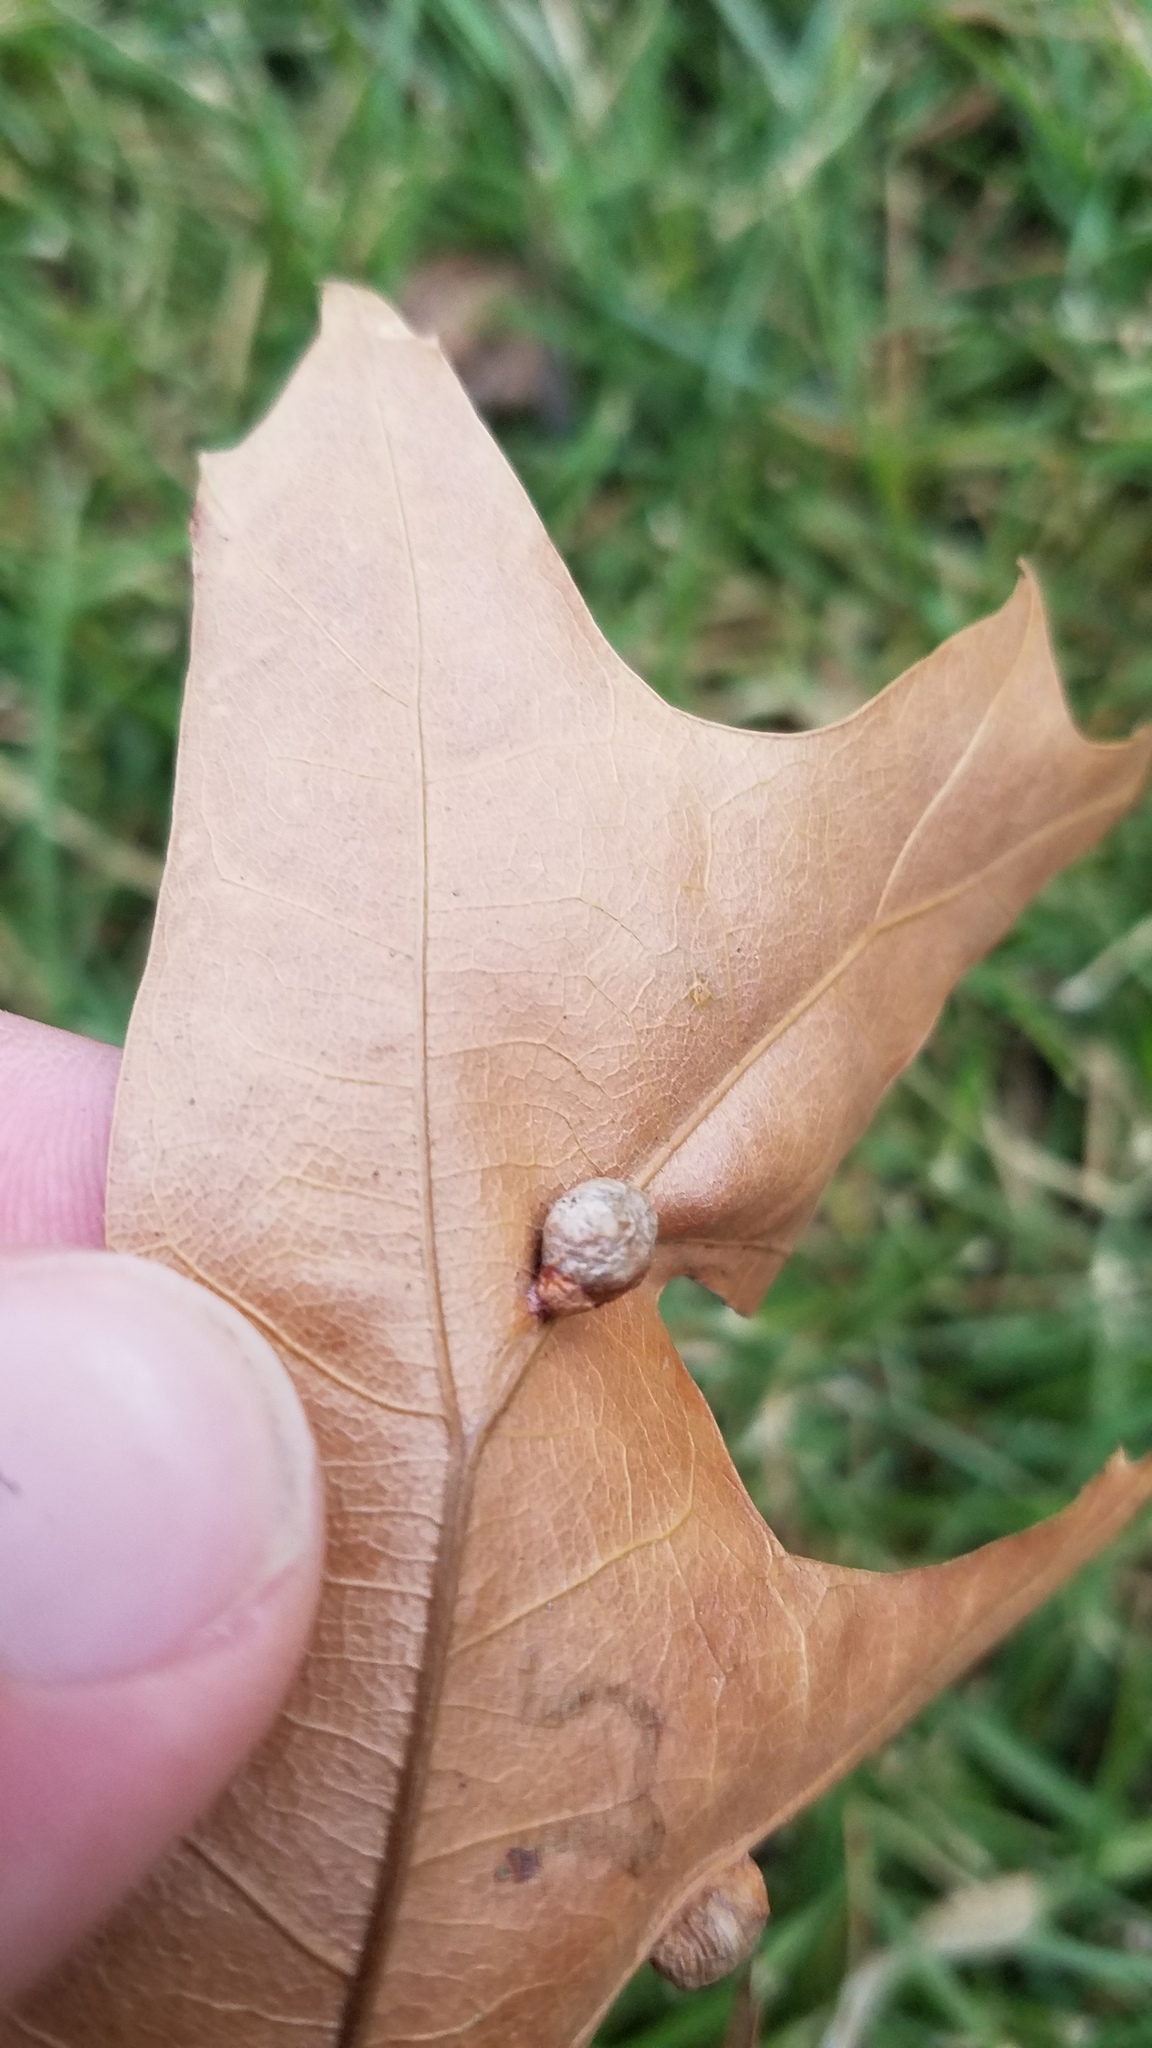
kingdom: Animalia
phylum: Arthropoda
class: Insecta
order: Diptera
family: Cecidomyiidae
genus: Macrodiplosis
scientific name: Macrodiplosis majalis
